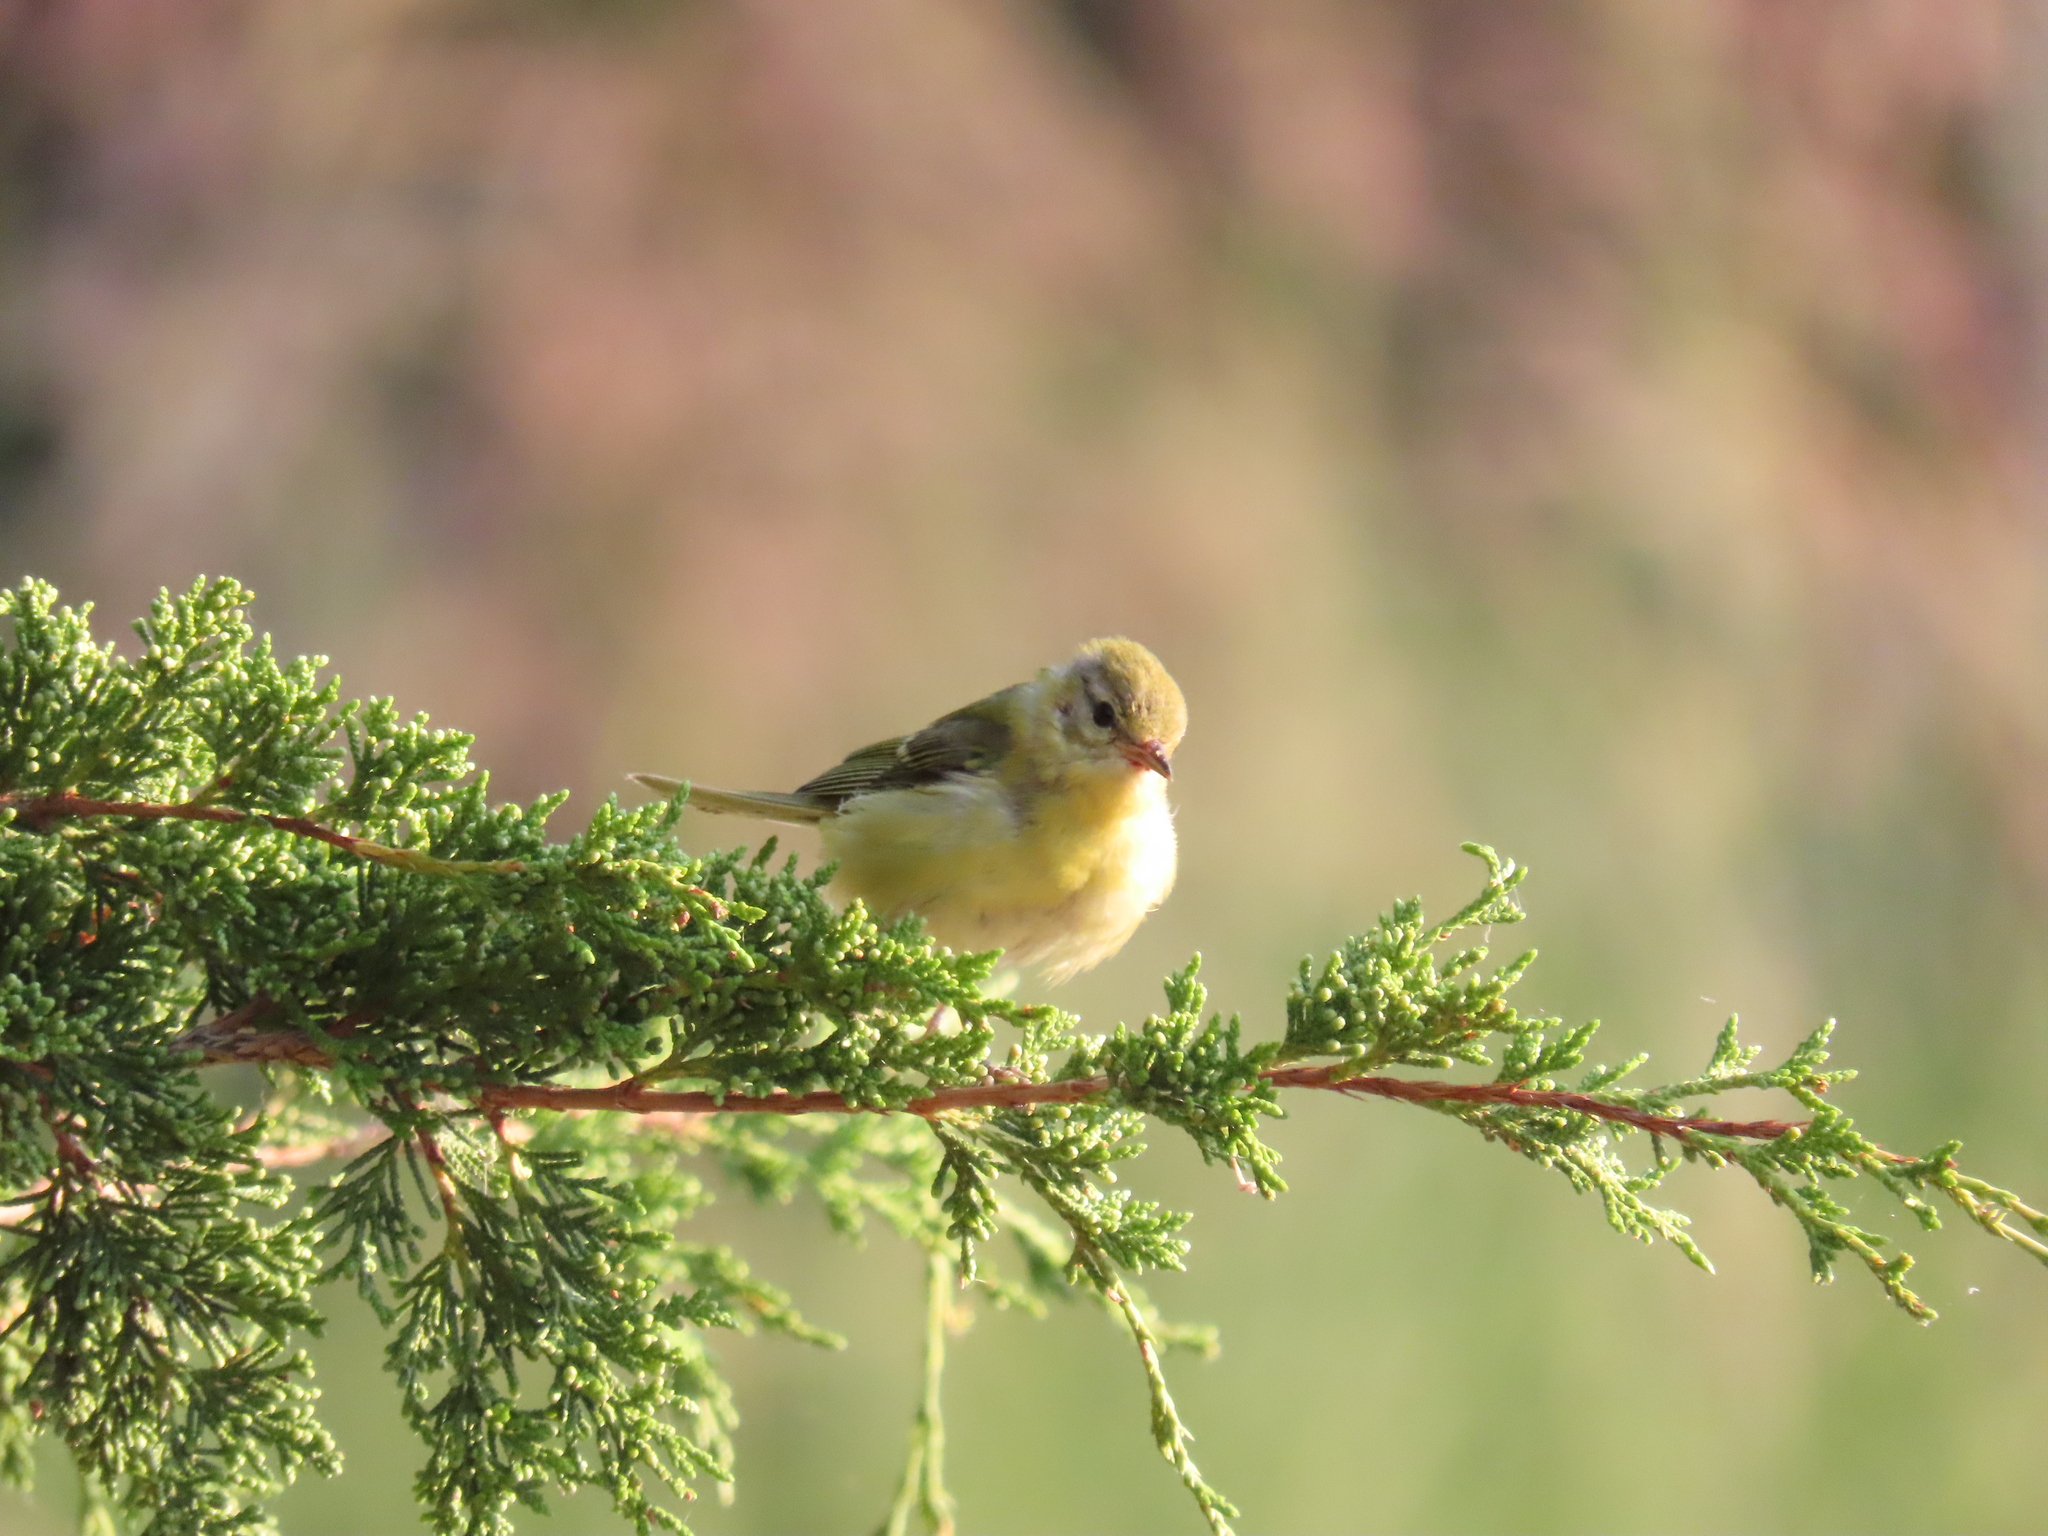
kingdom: Animalia
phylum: Chordata
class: Aves
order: Passeriformes
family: Parulidae
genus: Leiothlypis
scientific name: Leiothlypis peregrina
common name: Tennessee warbler
